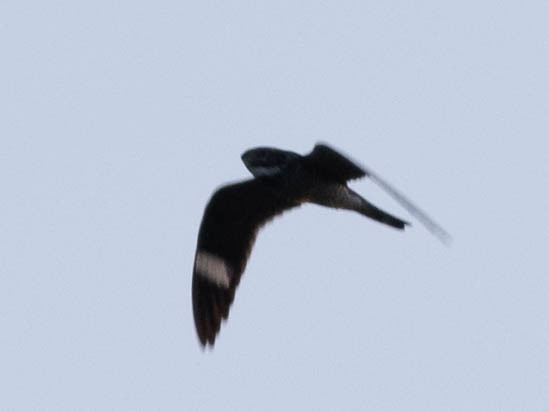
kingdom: Animalia
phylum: Chordata
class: Aves
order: Caprimulgiformes
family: Caprimulgidae
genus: Chordeiles
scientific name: Chordeiles minor
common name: Common nighthawk
